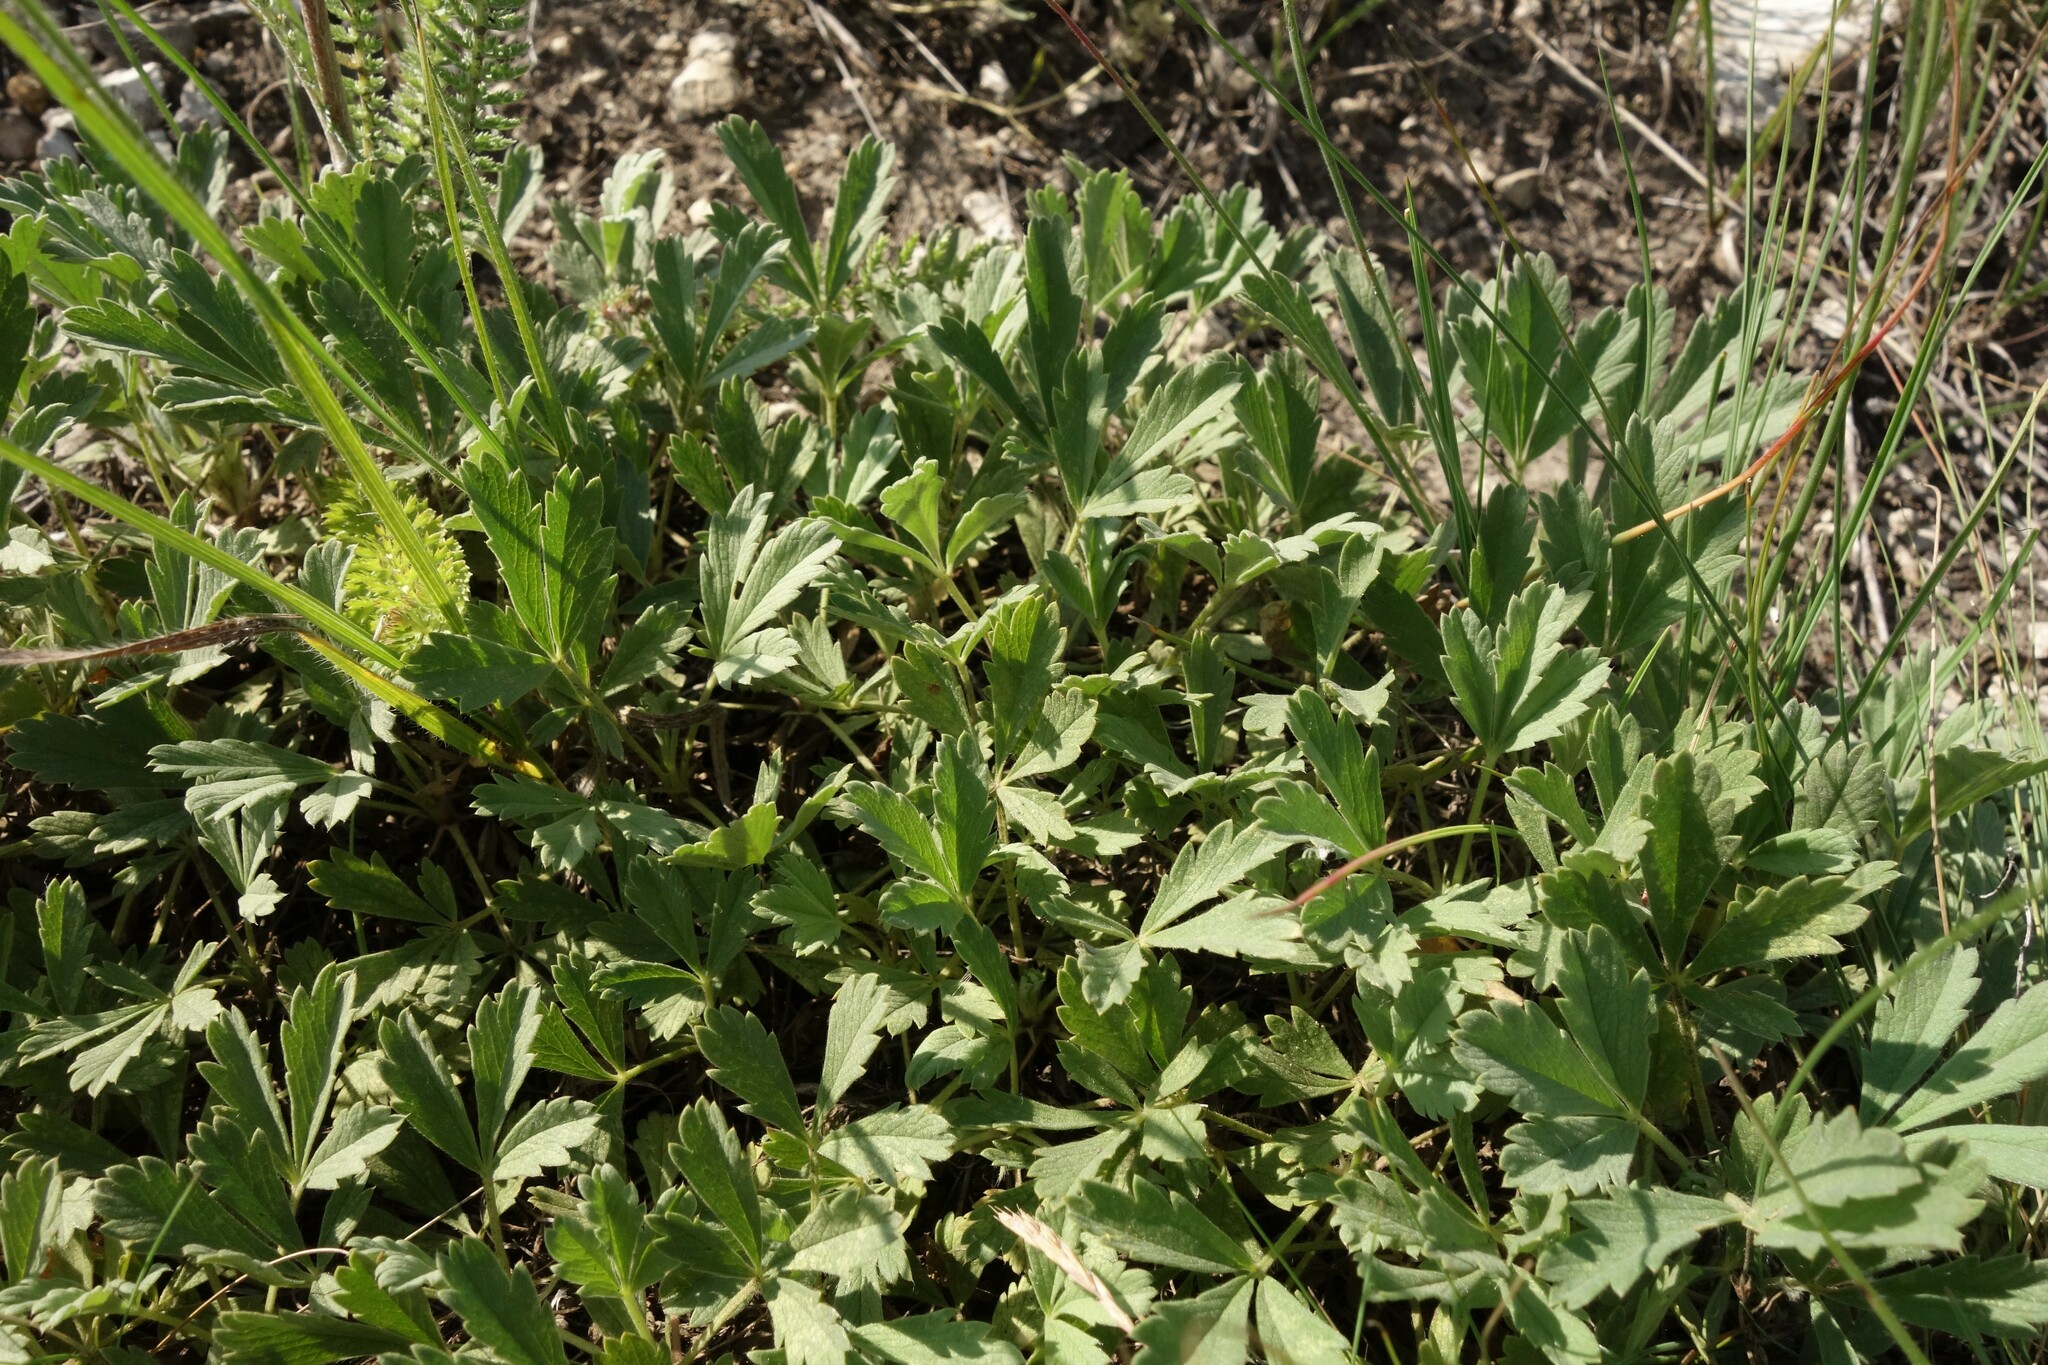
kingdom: Plantae
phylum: Tracheophyta
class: Magnoliopsida
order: Rosales
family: Rosaceae
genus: Potentilla
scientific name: Potentilla incana
